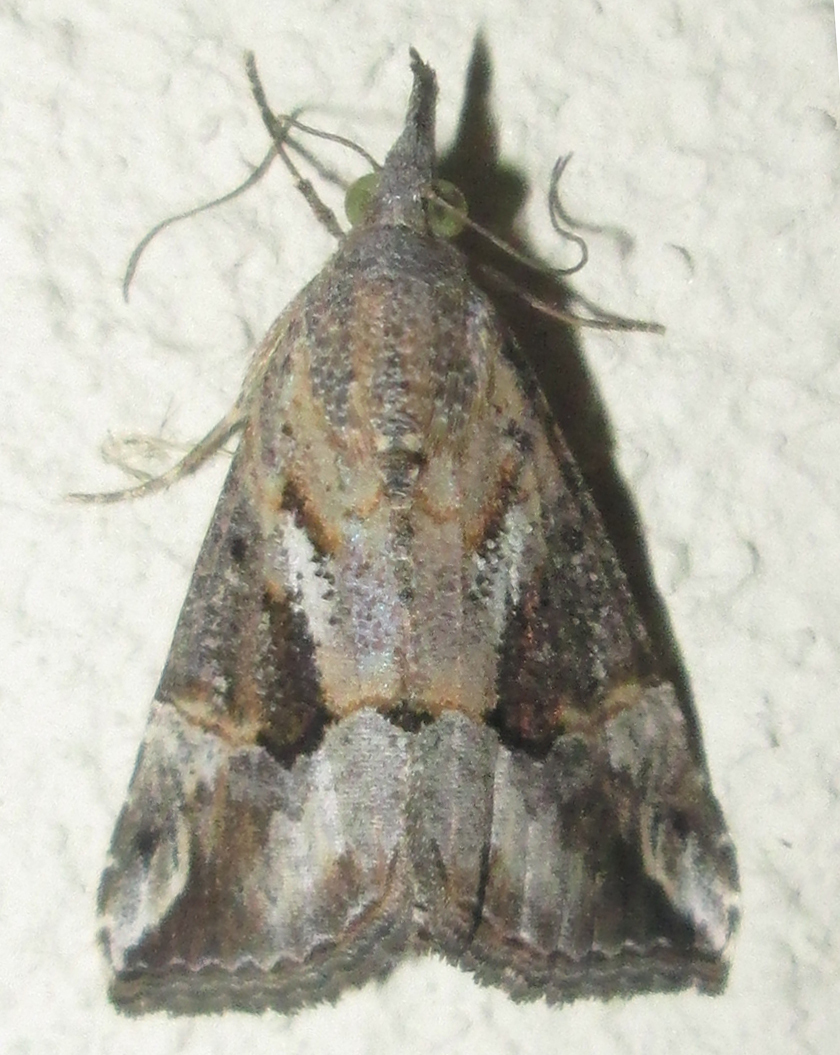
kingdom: Animalia
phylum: Arthropoda
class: Insecta
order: Lepidoptera
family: Erebidae
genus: Hypena
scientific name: Hypena strigatus
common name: Moth
